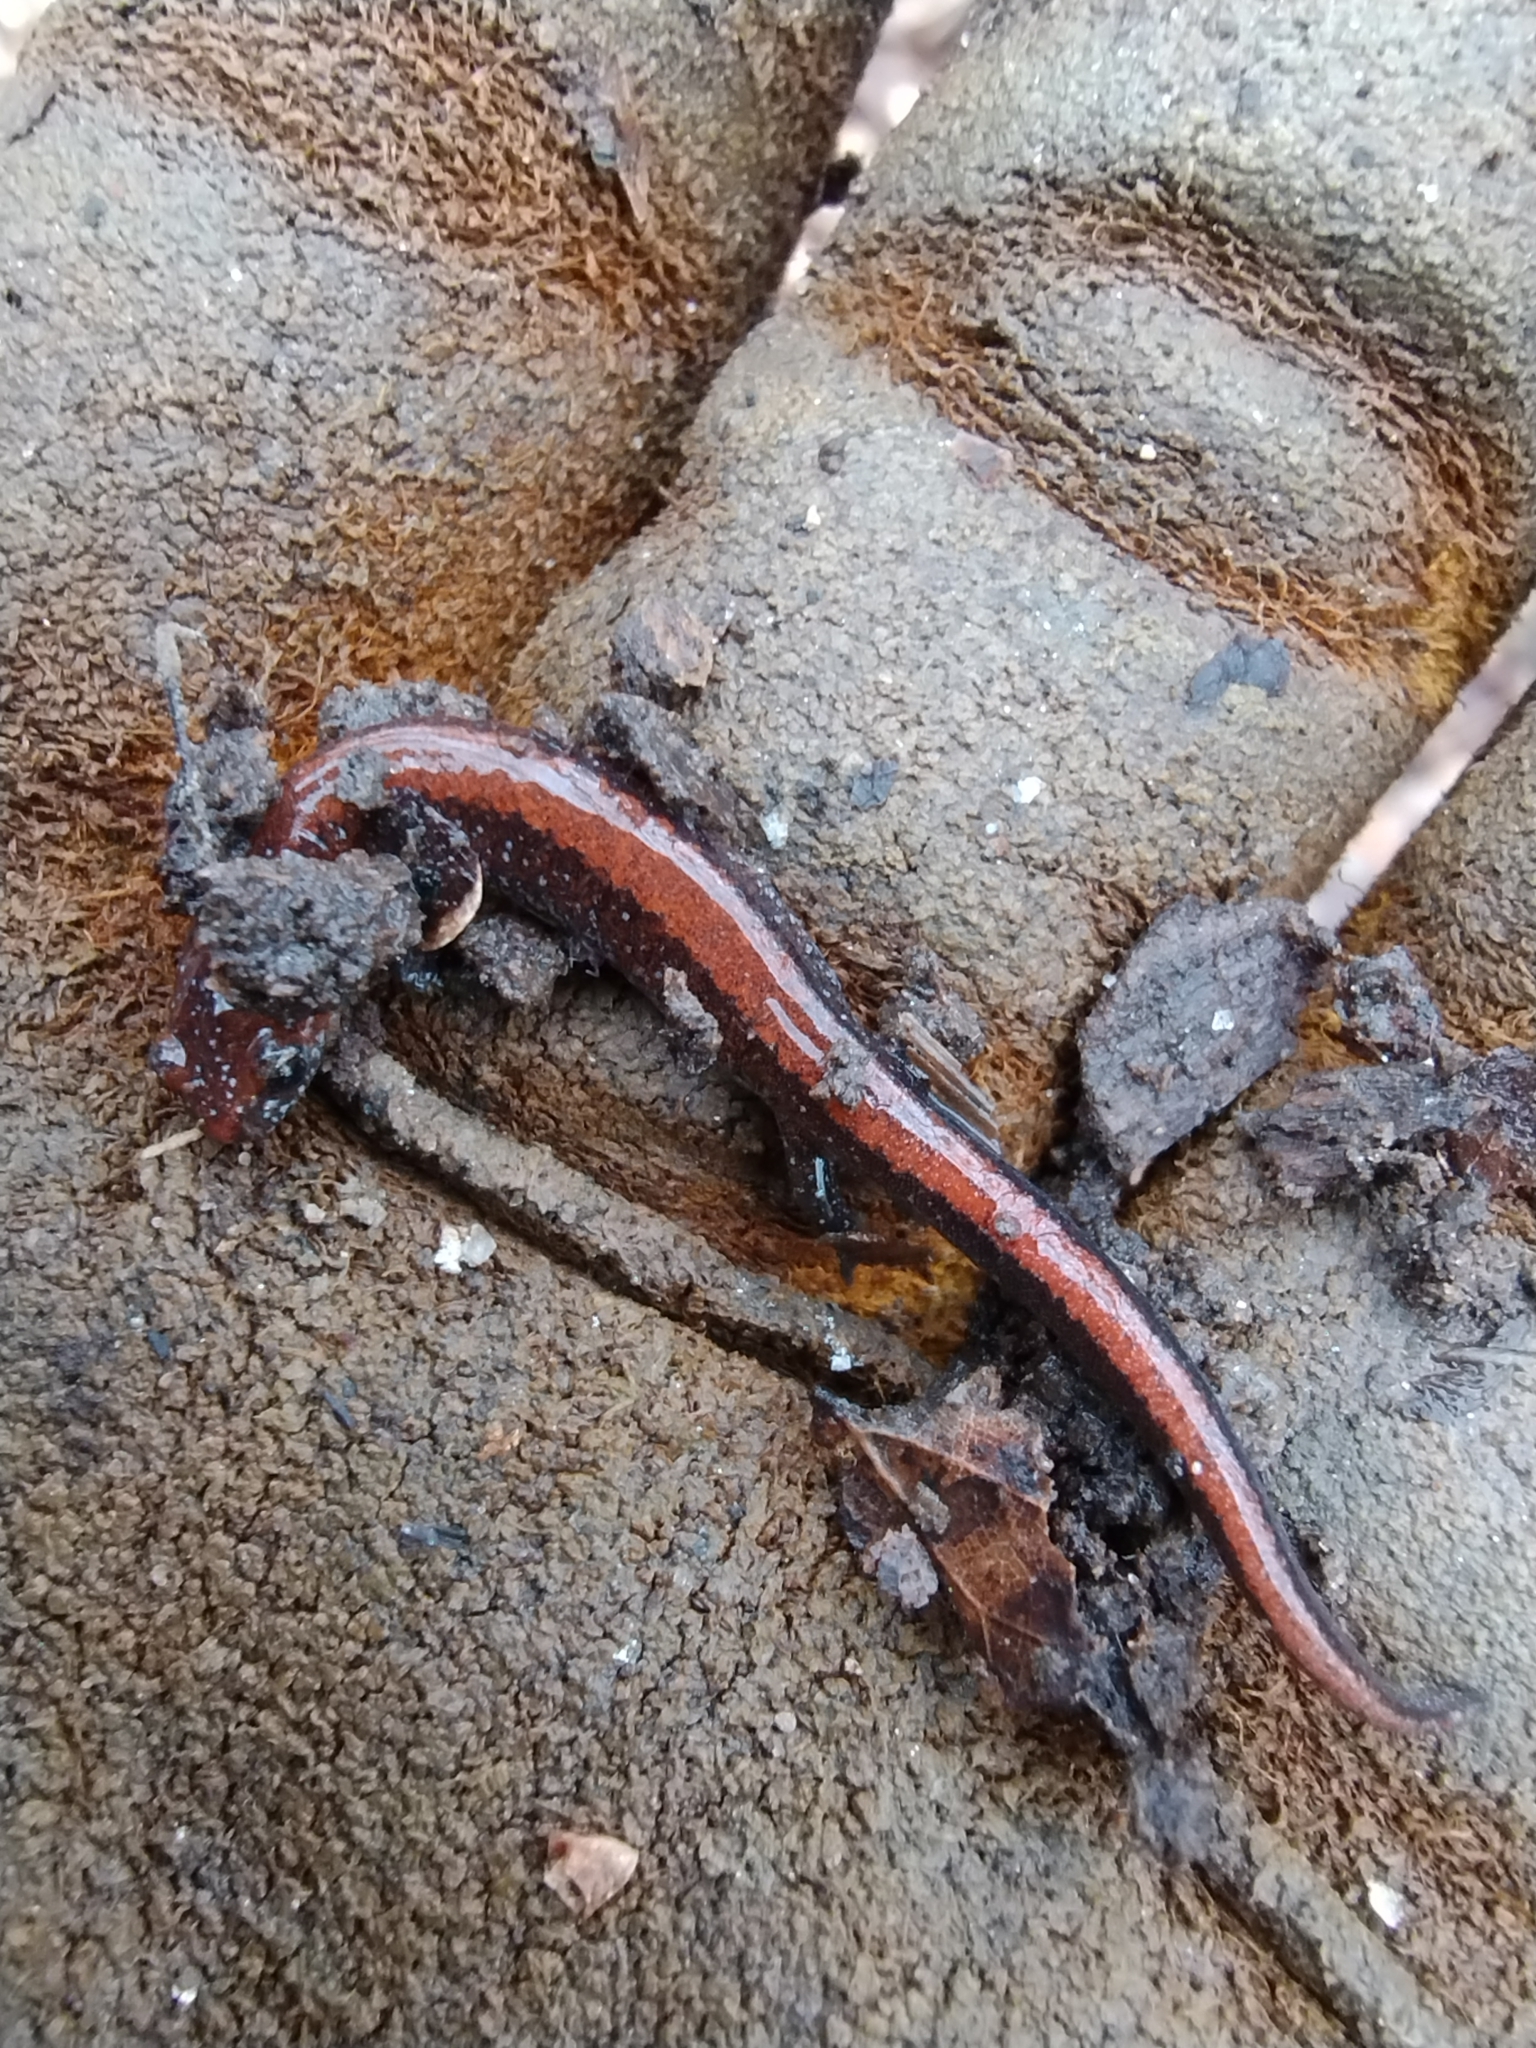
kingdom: Animalia
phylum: Chordata
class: Amphibia
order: Caudata
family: Plethodontidae
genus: Plethodon
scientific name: Plethodon serratus
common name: Southern red-backed salamander
